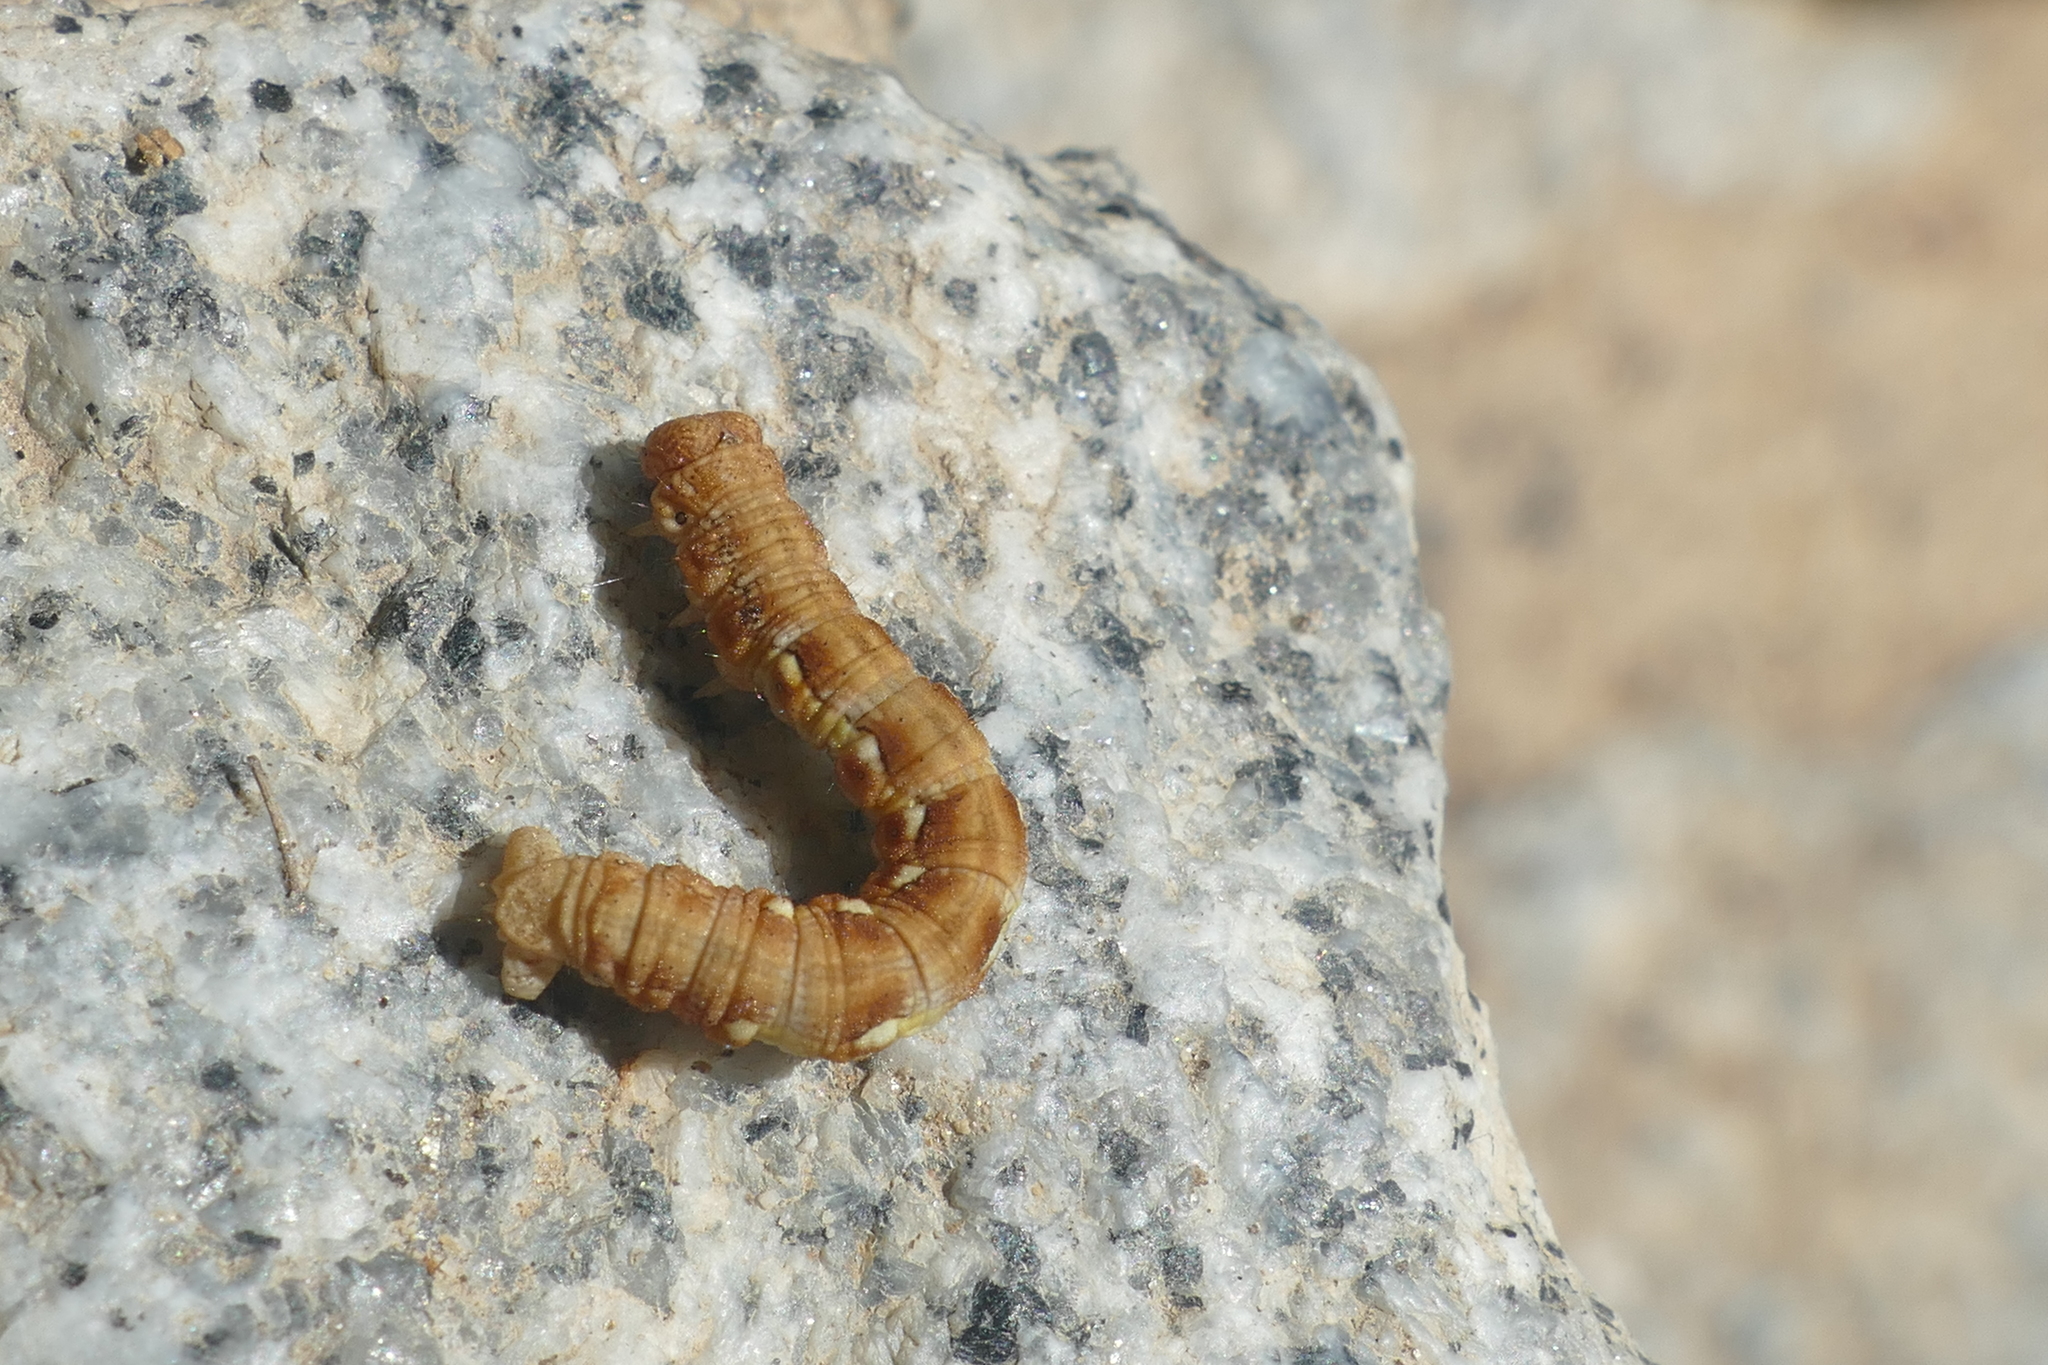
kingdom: Animalia
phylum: Arthropoda
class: Insecta
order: Lepidoptera
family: Geometridae
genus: Erannis
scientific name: Erannis defoliaria
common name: Mottled umber
